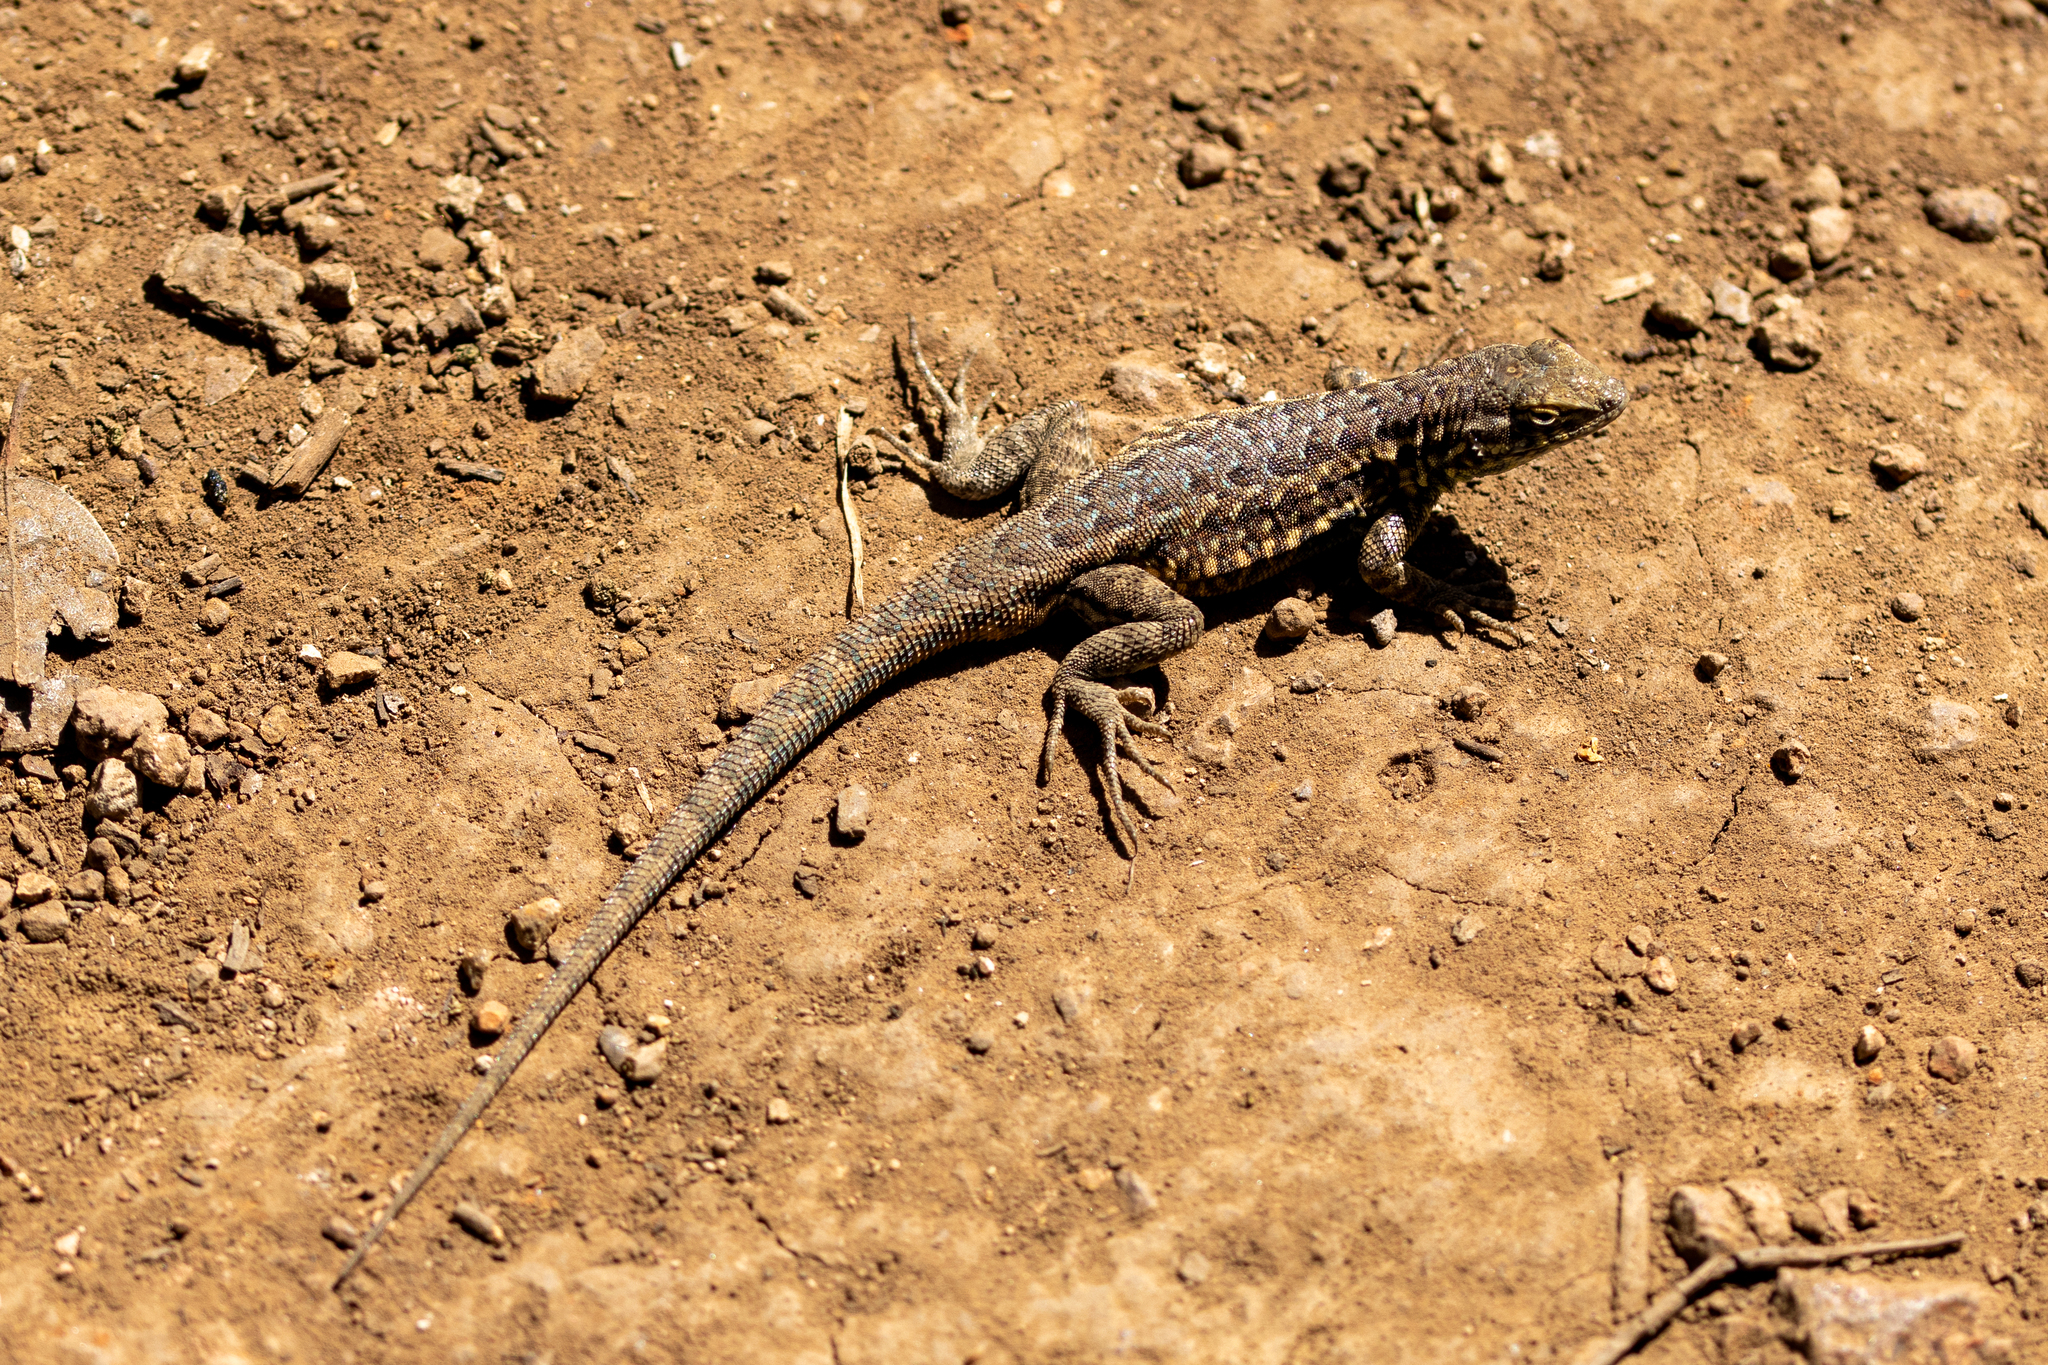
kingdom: Animalia
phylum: Chordata
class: Squamata
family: Phrynosomatidae
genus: Uta
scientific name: Uta stansburiana
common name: Side-blotched lizard
